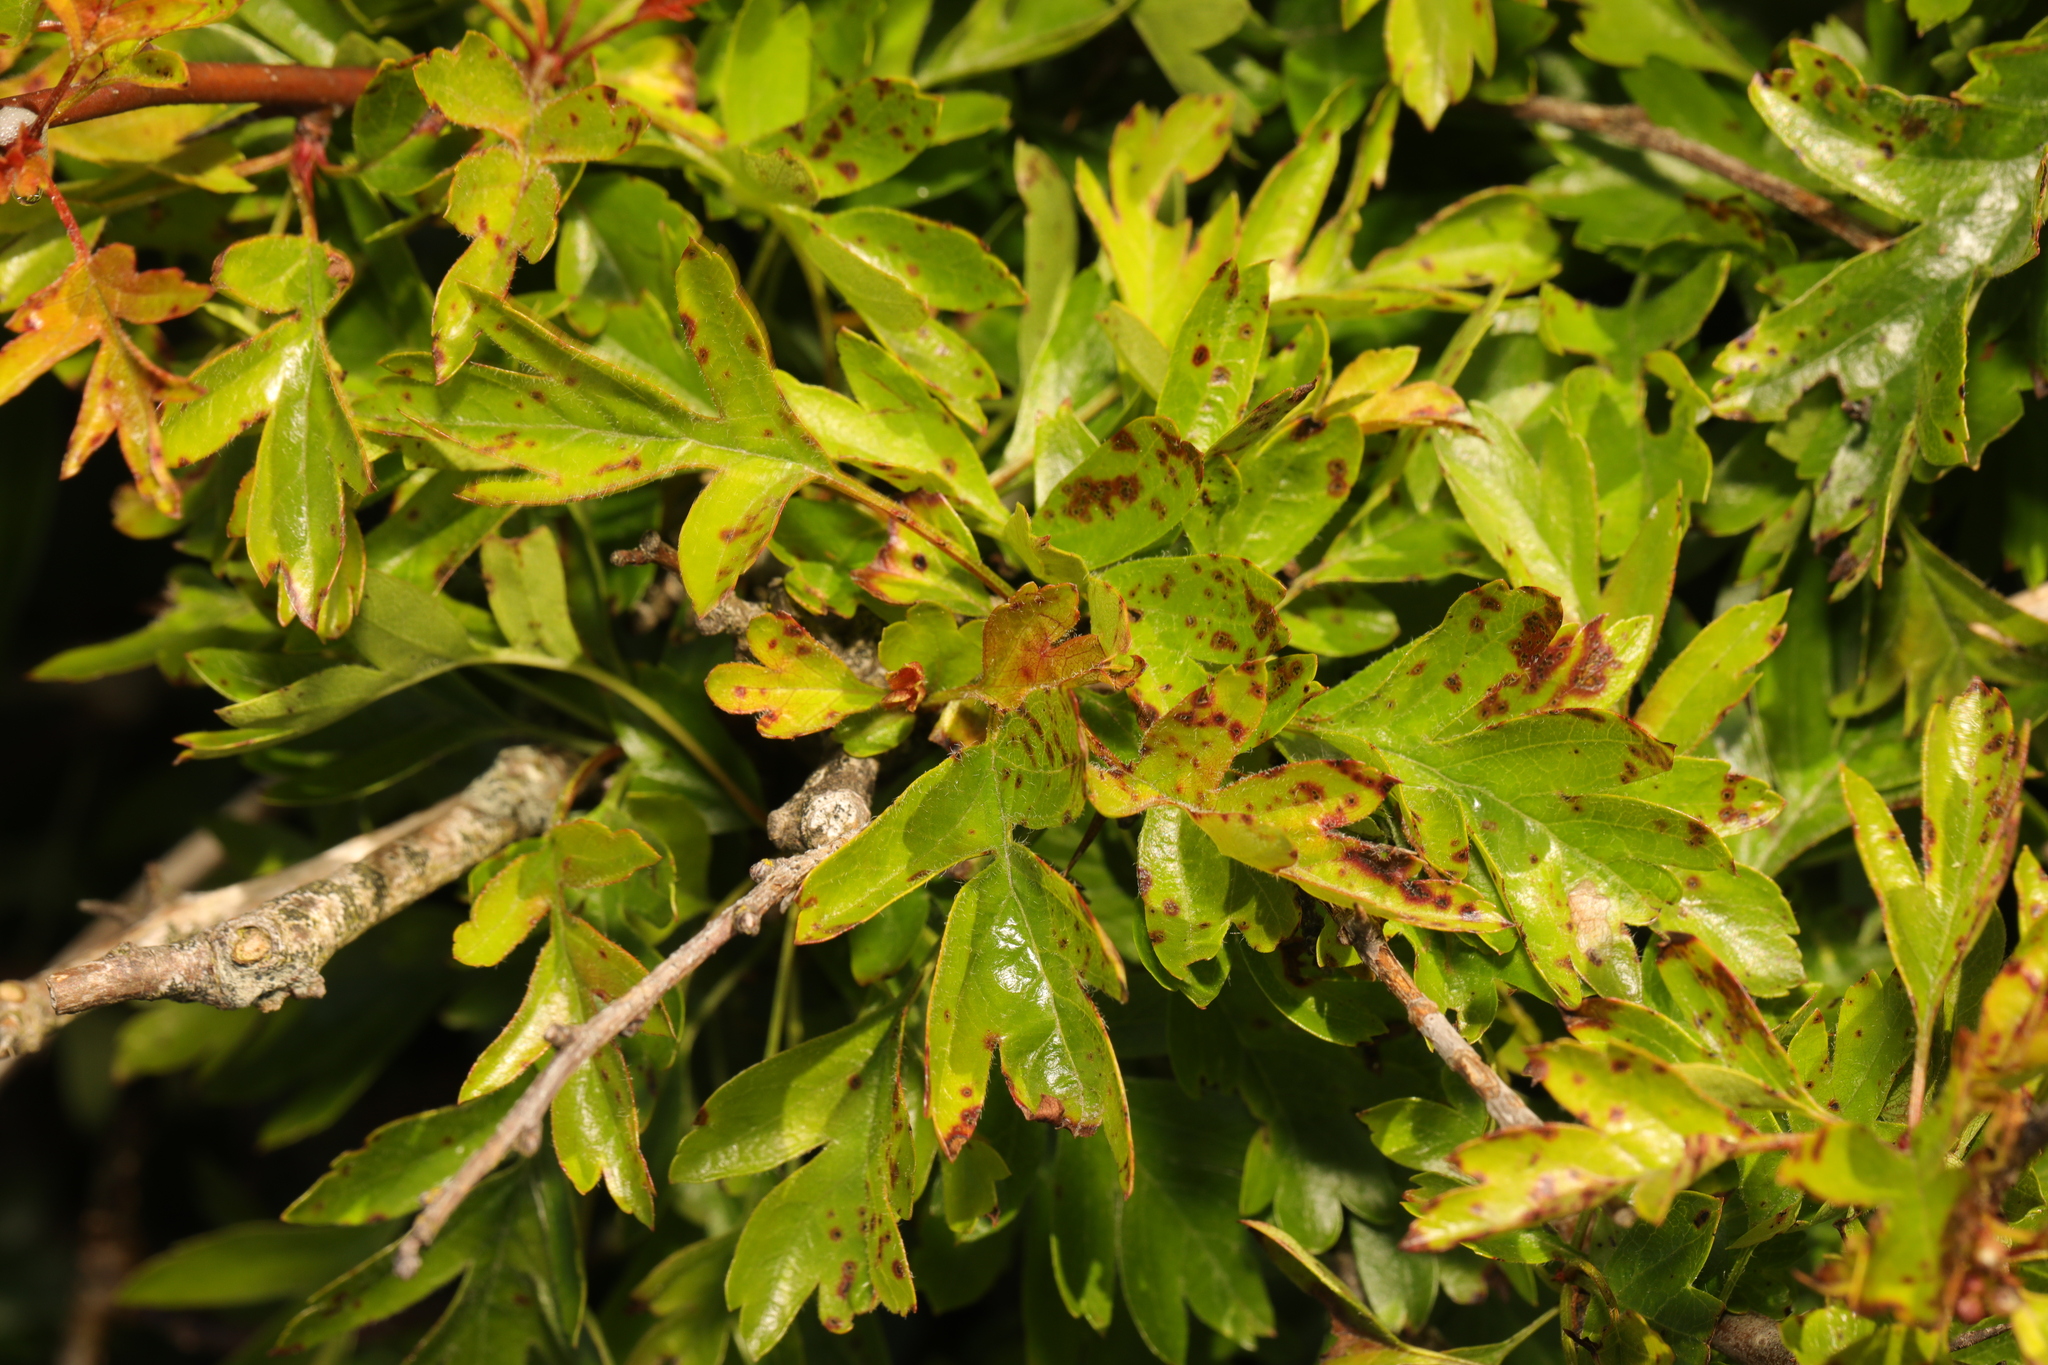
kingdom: Plantae
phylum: Tracheophyta
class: Magnoliopsida
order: Rosales
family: Rosaceae
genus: Crataegus
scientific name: Crataegus monogyna
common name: Hawthorn
